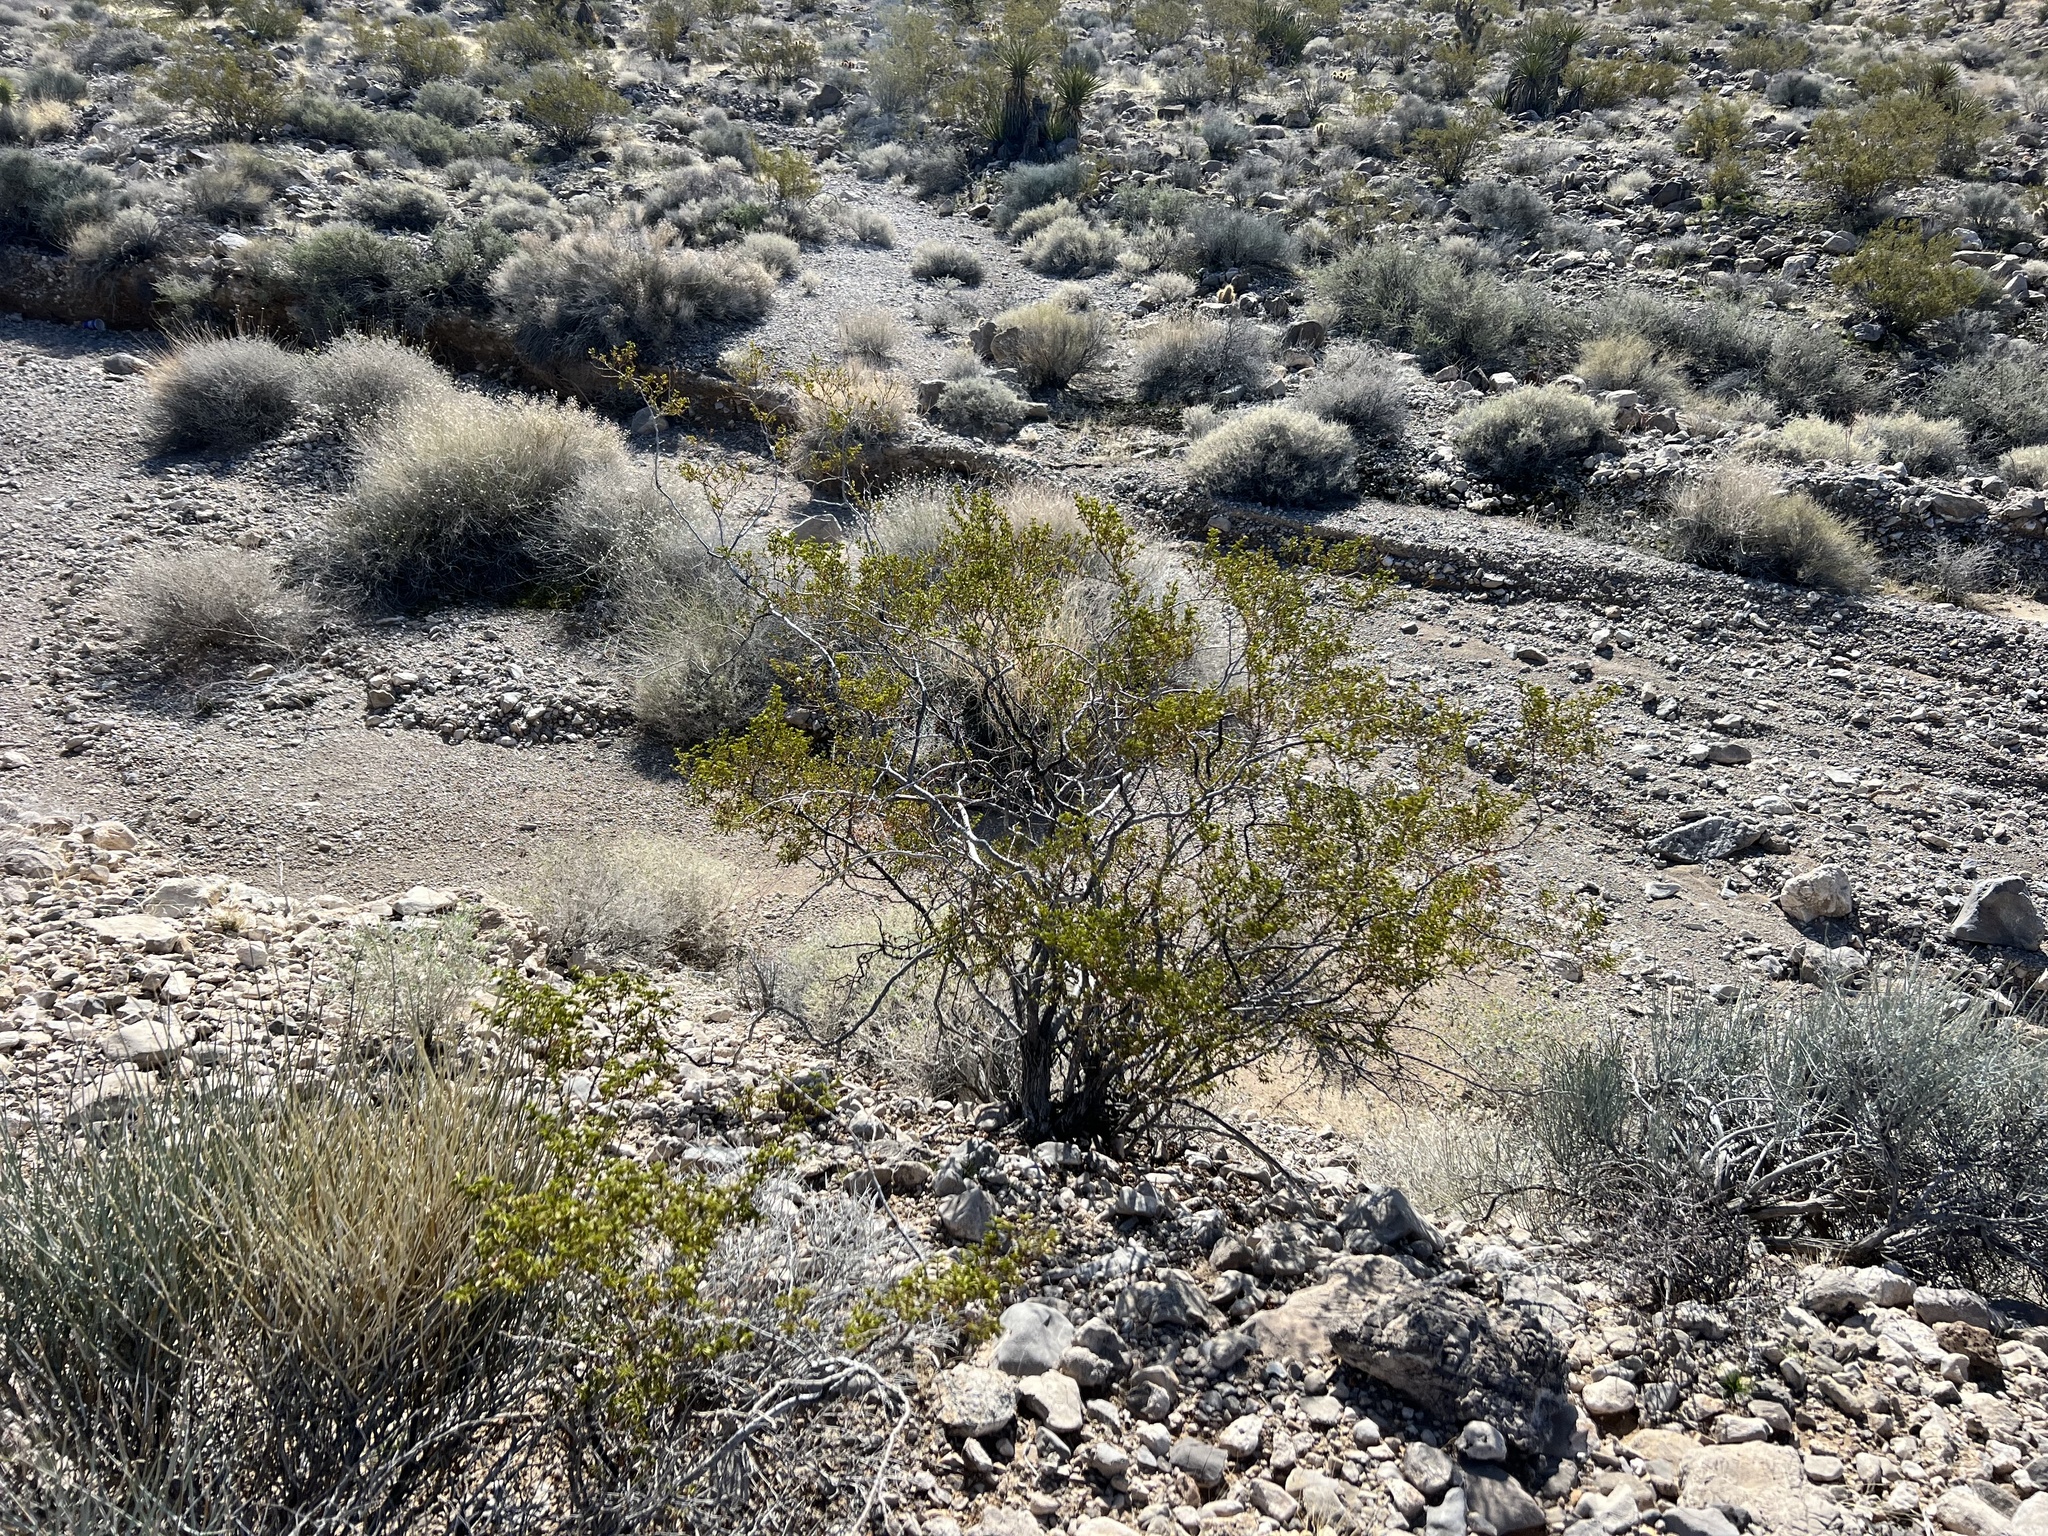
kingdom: Plantae
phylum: Tracheophyta
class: Magnoliopsida
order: Zygophyllales
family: Zygophyllaceae
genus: Larrea
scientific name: Larrea tridentata
